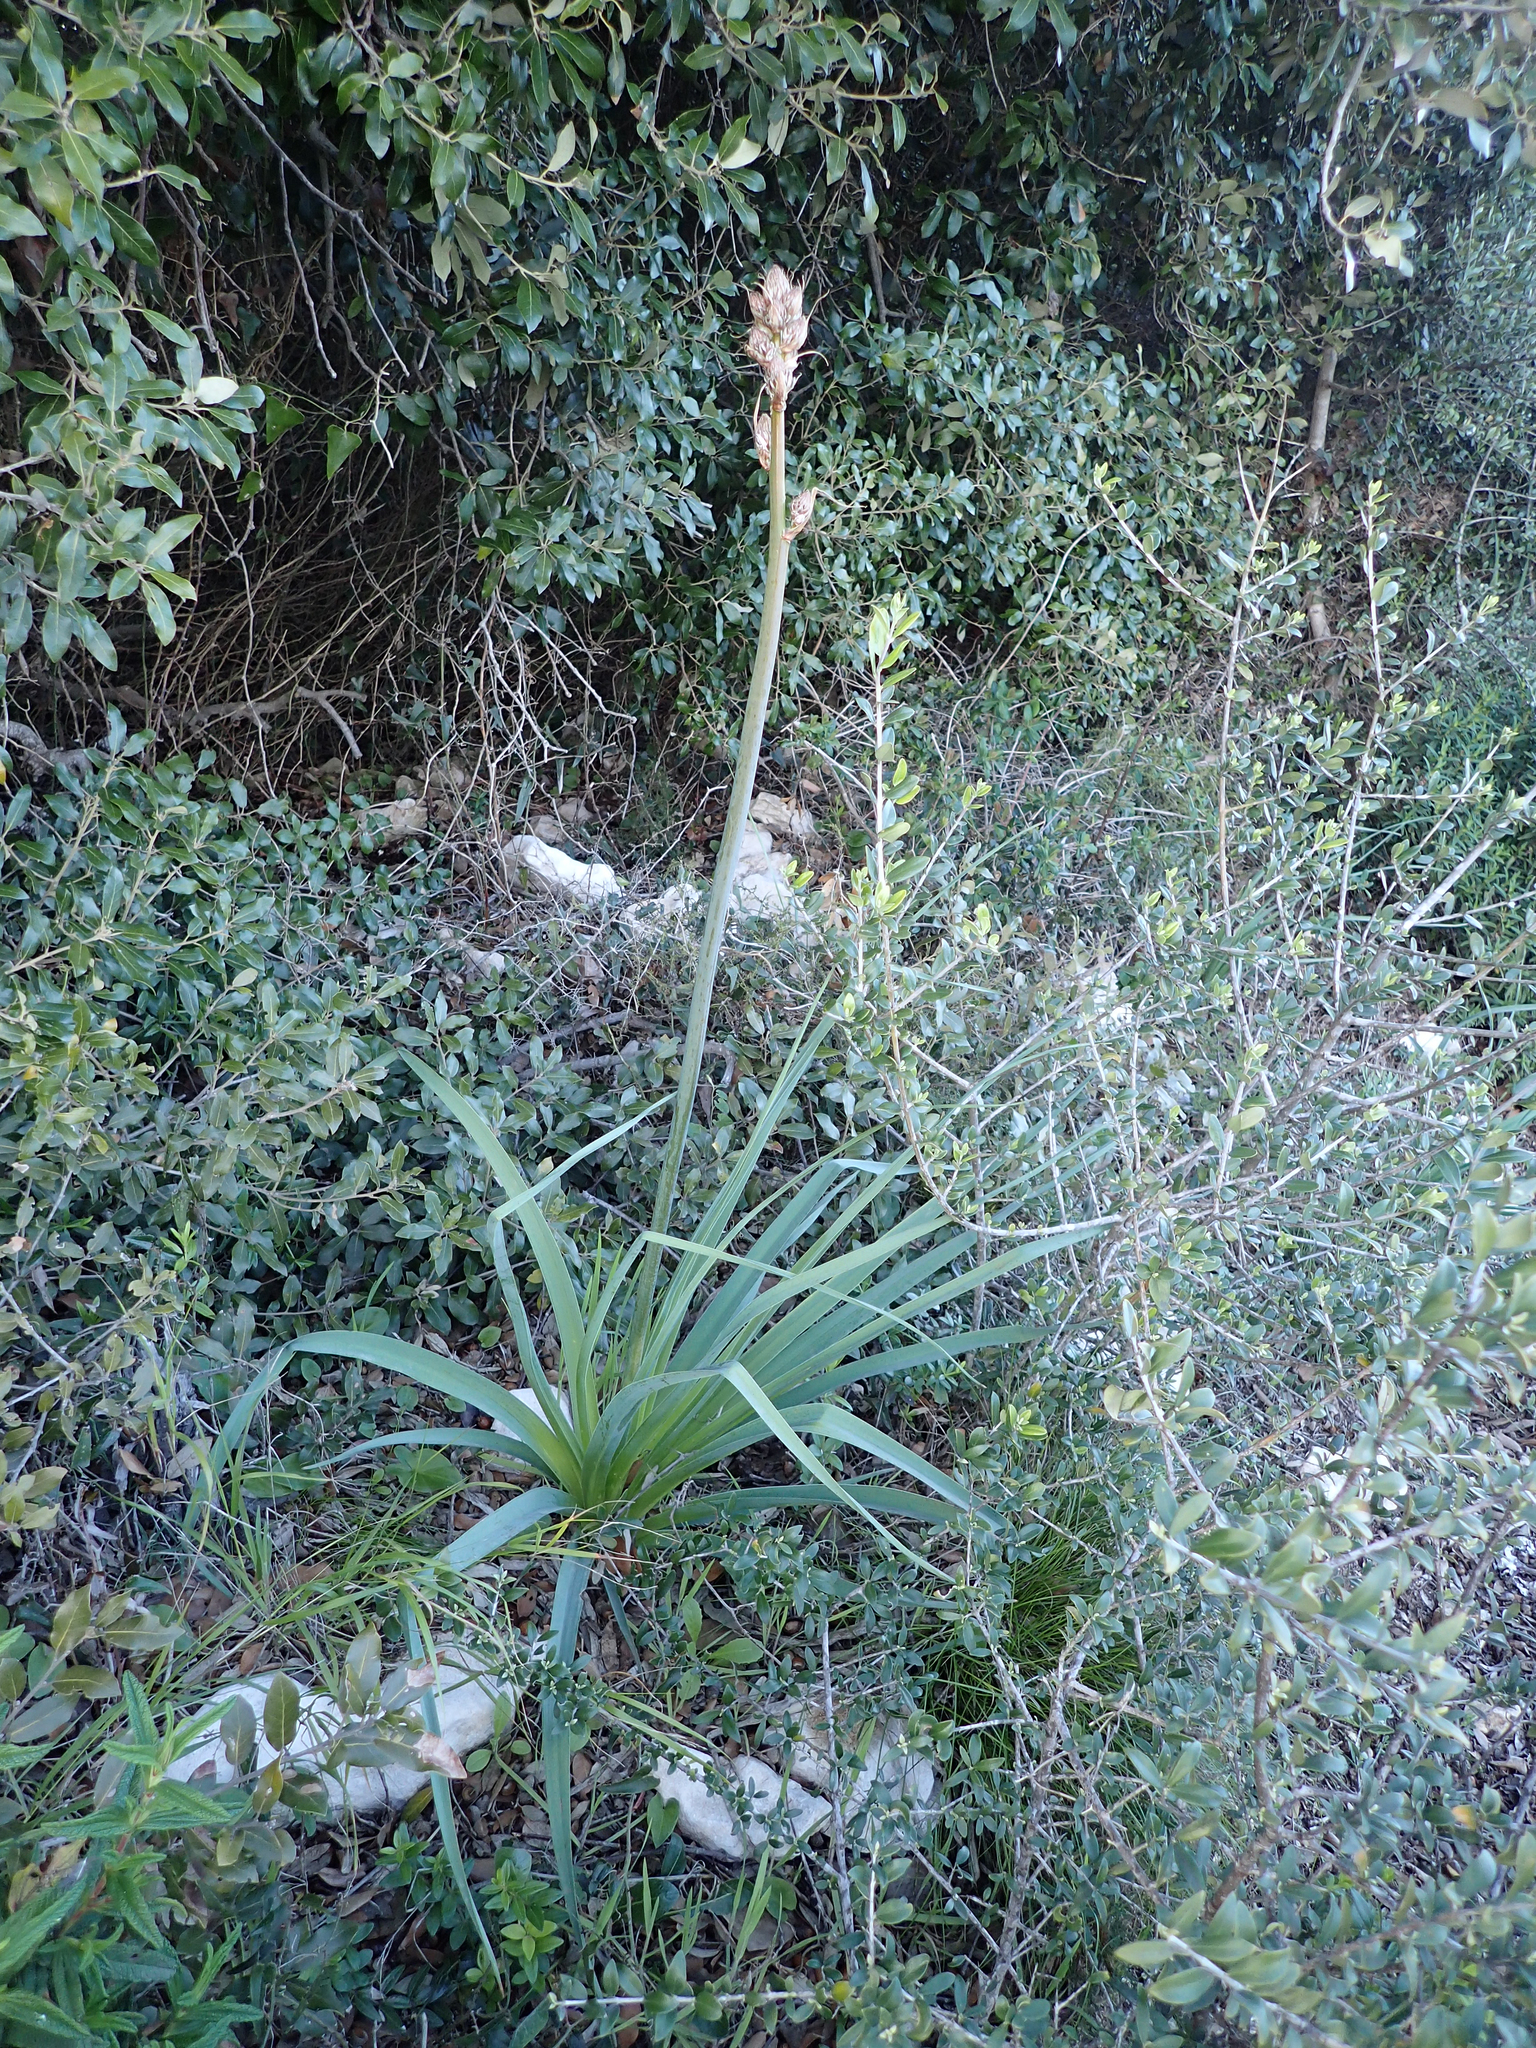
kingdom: Plantae
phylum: Tracheophyta
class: Liliopsida
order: Asparagales
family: Asphodelaceae
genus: Asphodelus
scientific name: Asphodelus ramosus
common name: Silverrod
